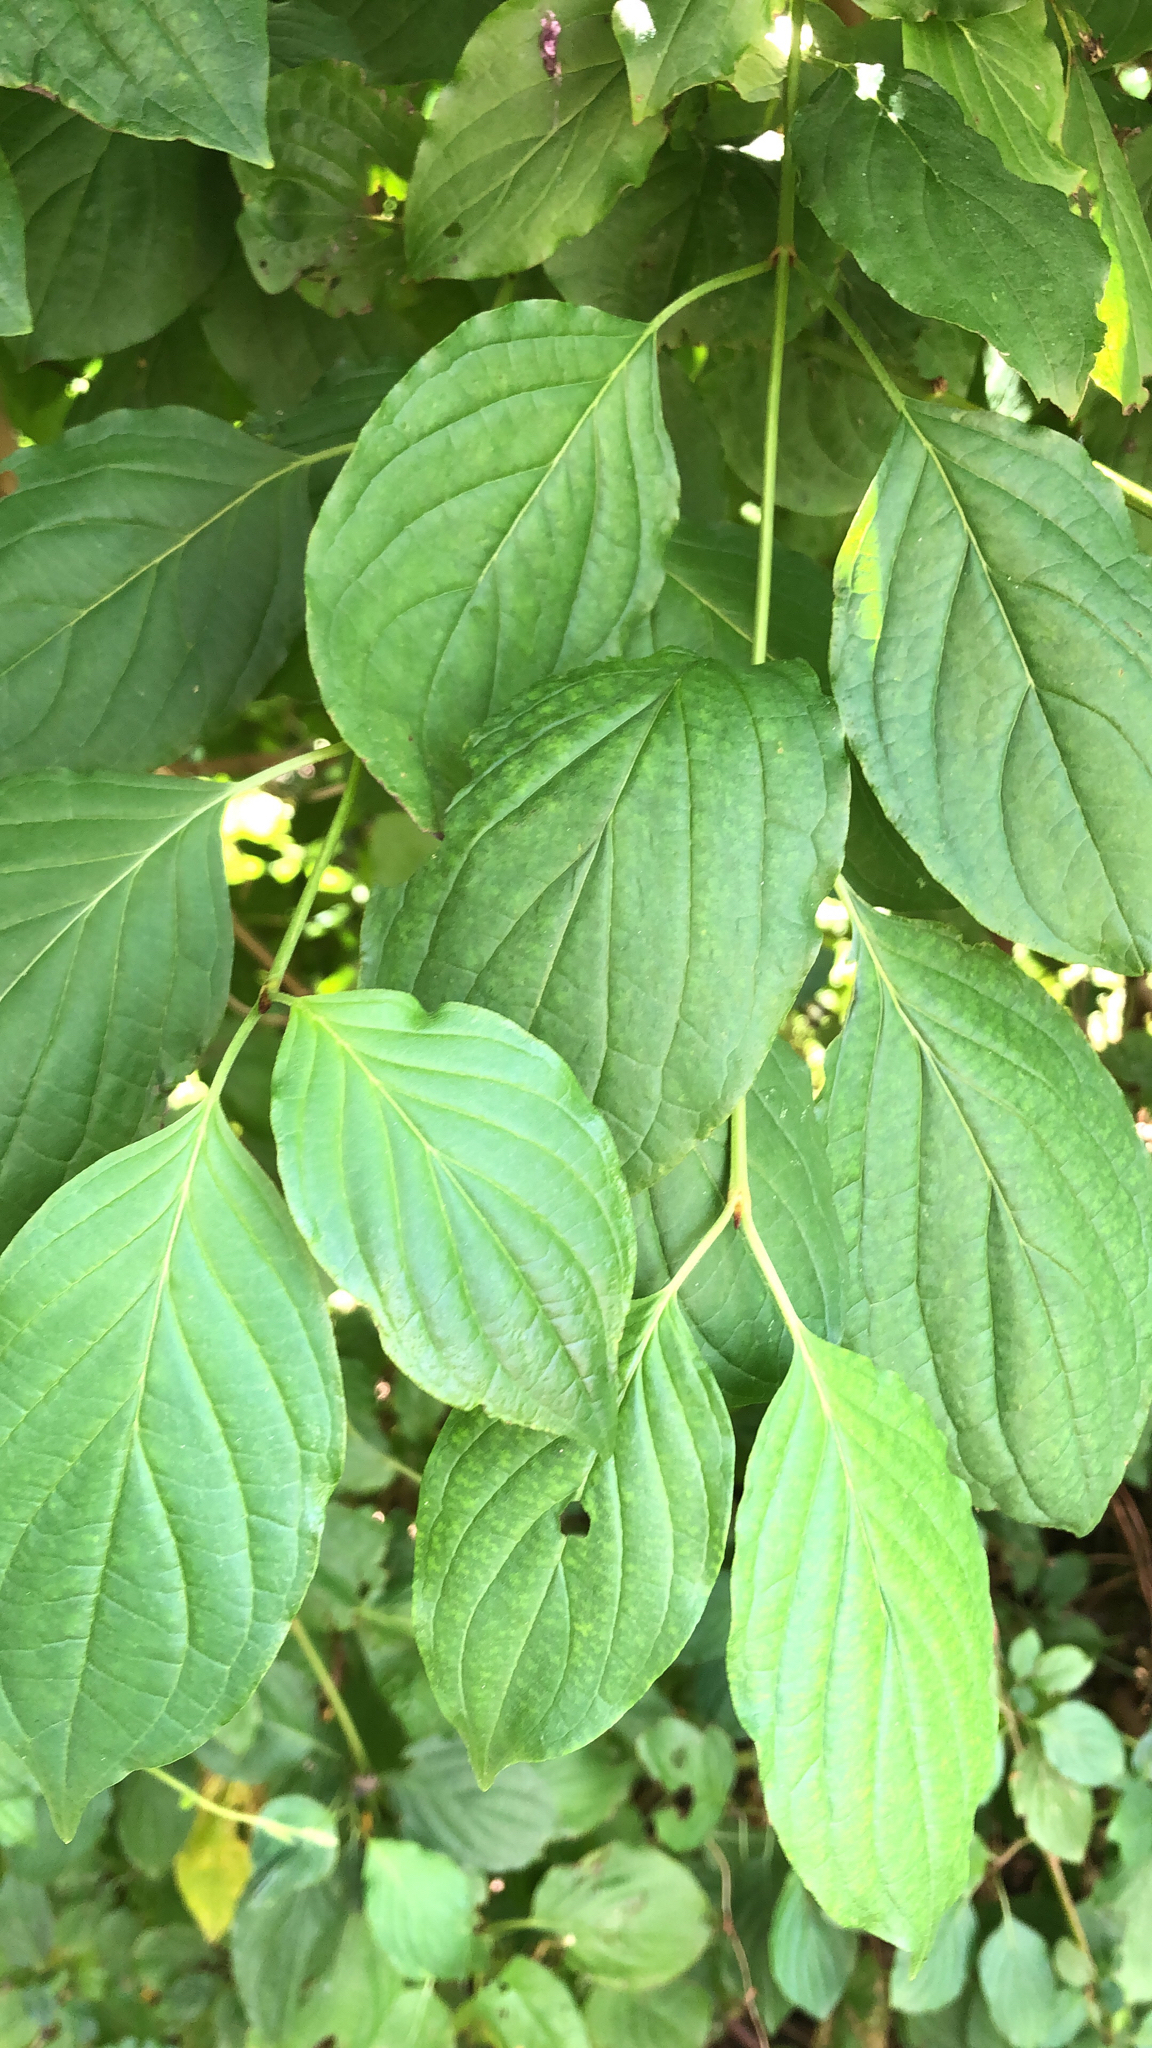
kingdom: Plantae
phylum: Tracheophyta
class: Magnoliopsida
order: Cornales
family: Cornaceae
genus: Cornus
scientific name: Cornus sanguinea
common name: Dogwood
